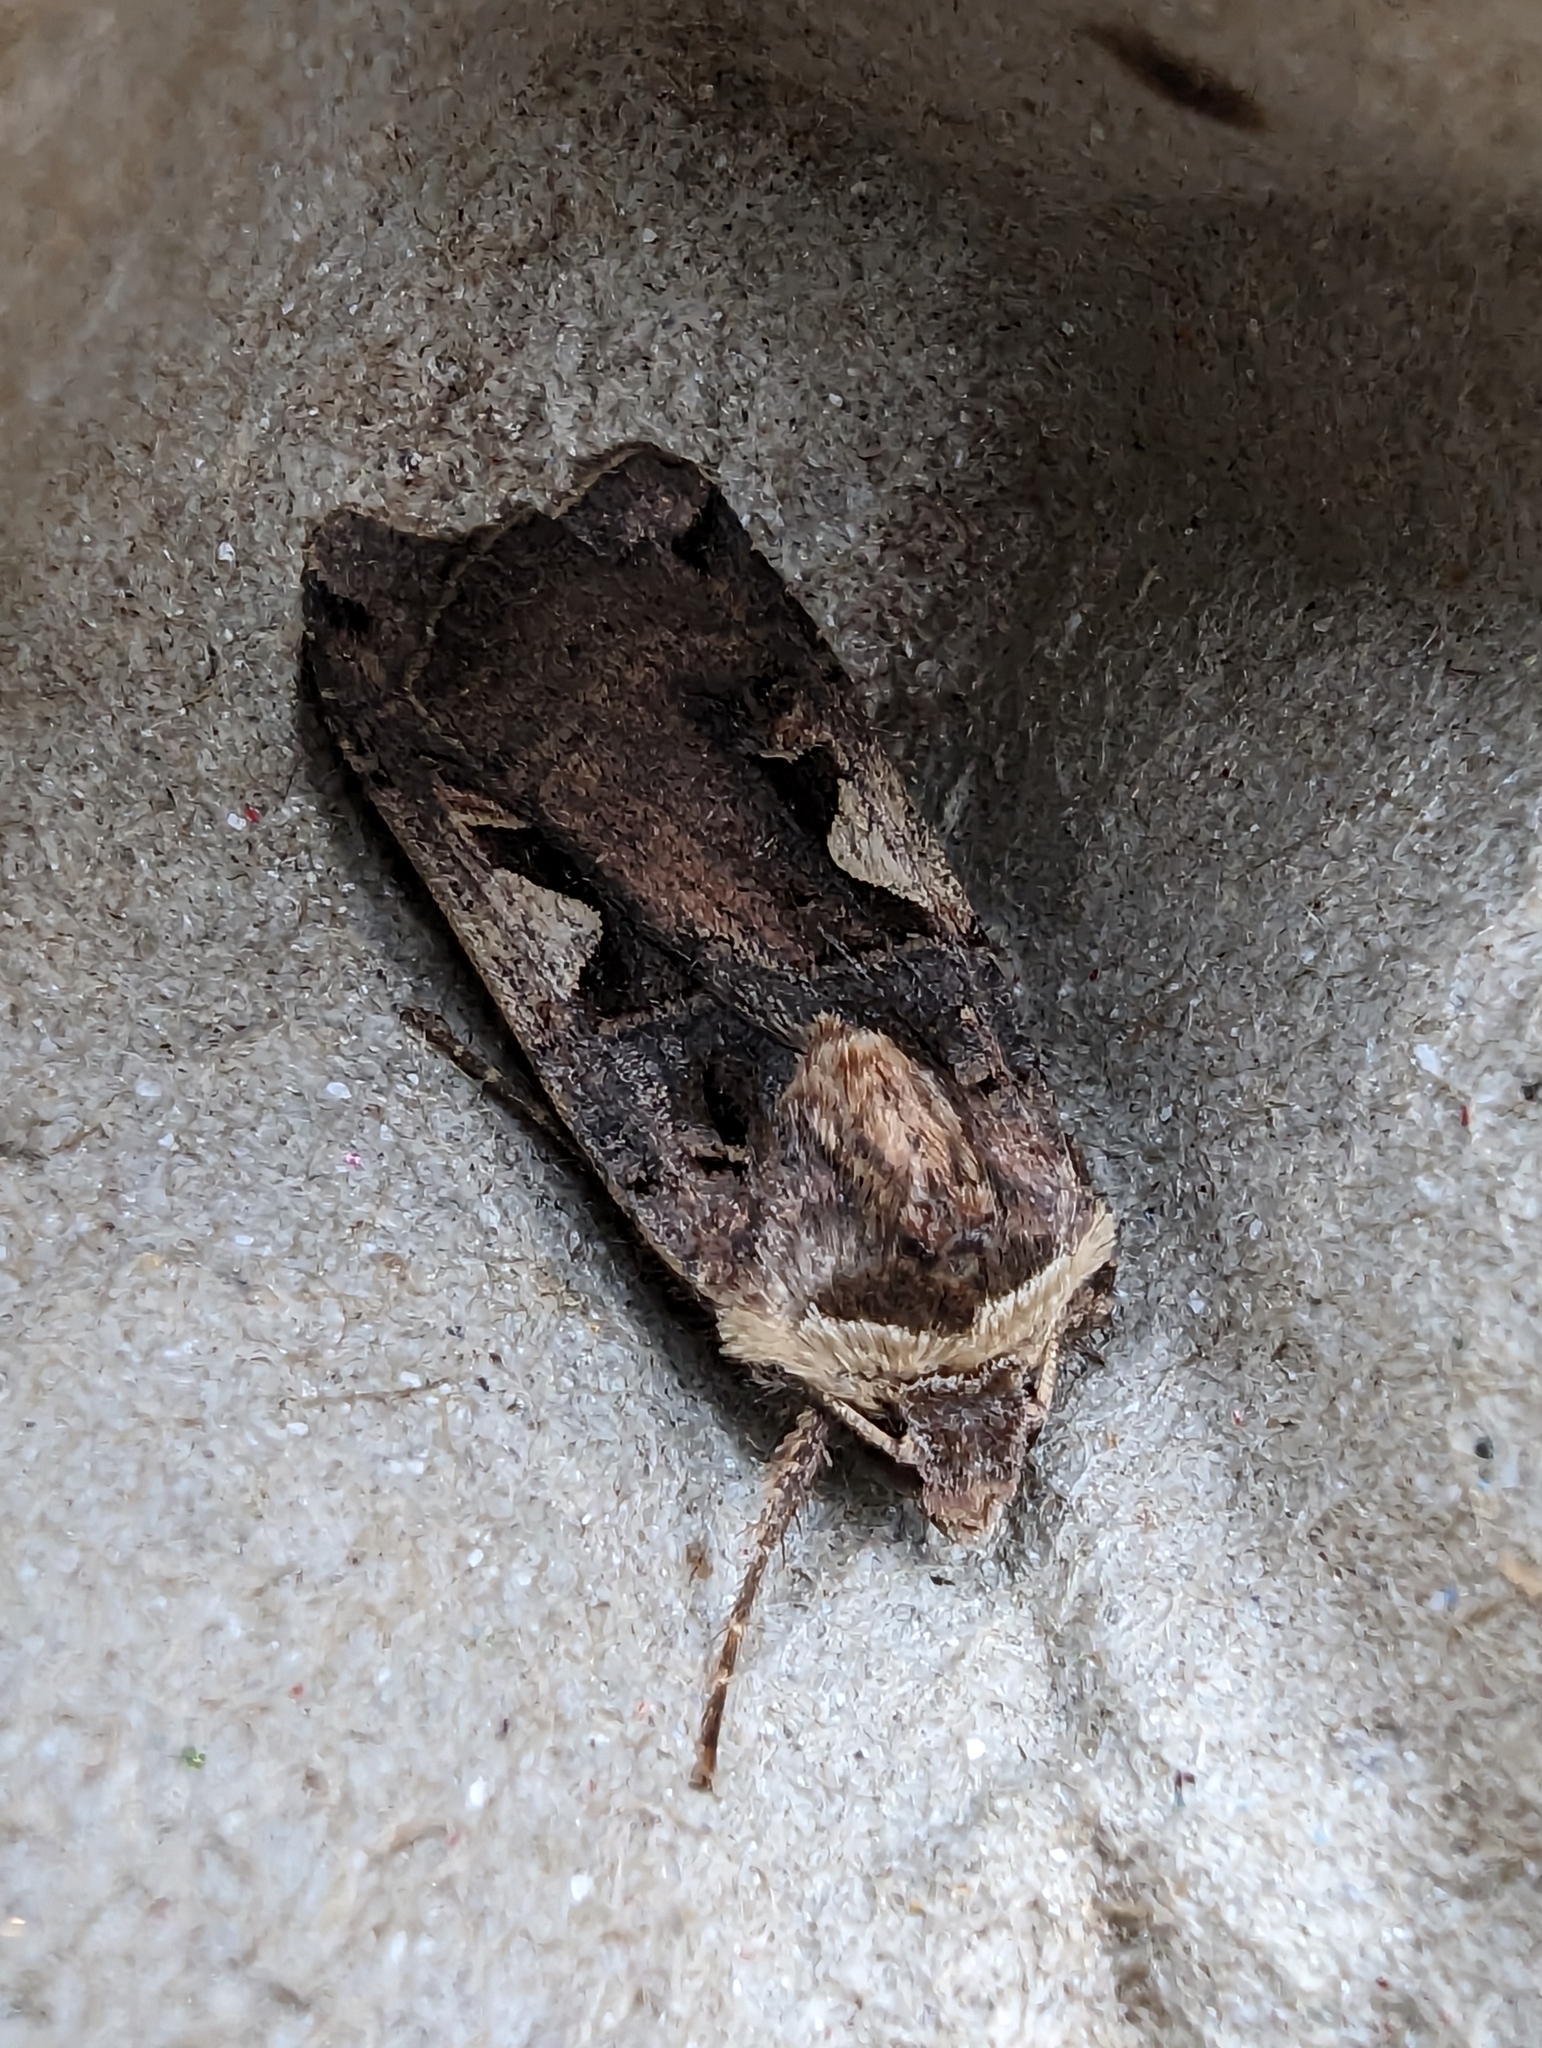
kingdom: Animalia
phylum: Arthropoda
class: Insecta
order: Lepidoptera
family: Noctuidae
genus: Xestia
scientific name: Xestia c-nigrum
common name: Setaceous hebrew character
